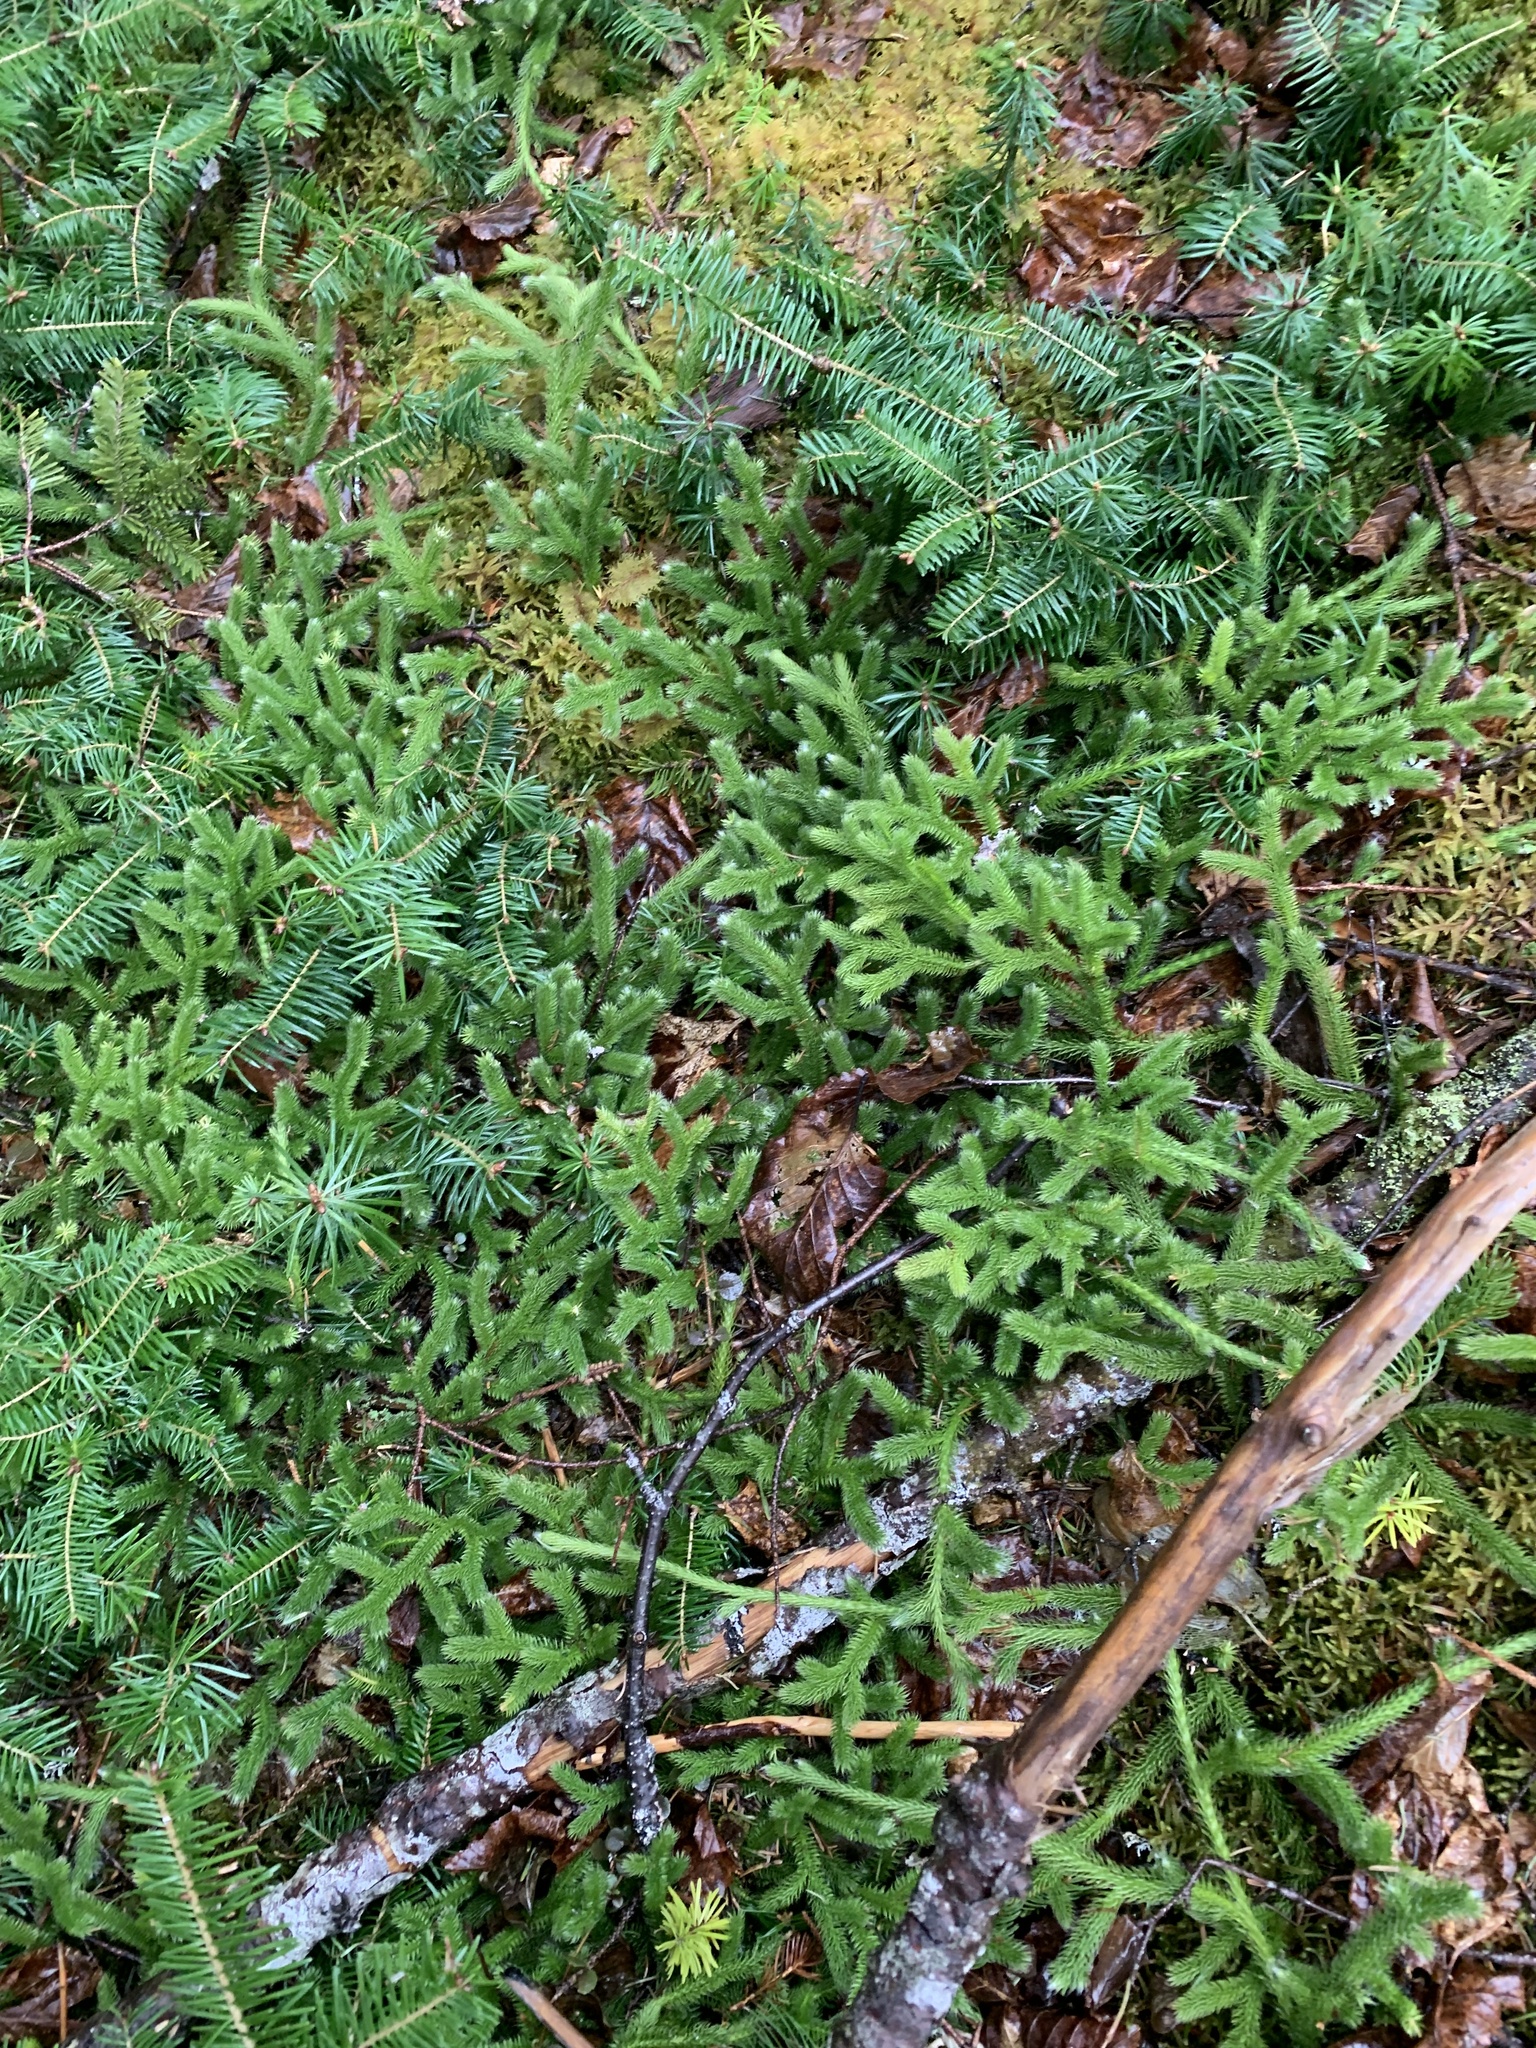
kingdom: Plantae
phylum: Tracheophyta
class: Lycopodiopsida
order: Lycopodiales
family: Lycopodiaceae
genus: Lycopodium
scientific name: Lycopodium clavatum
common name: Stag's-horn clubmoss
